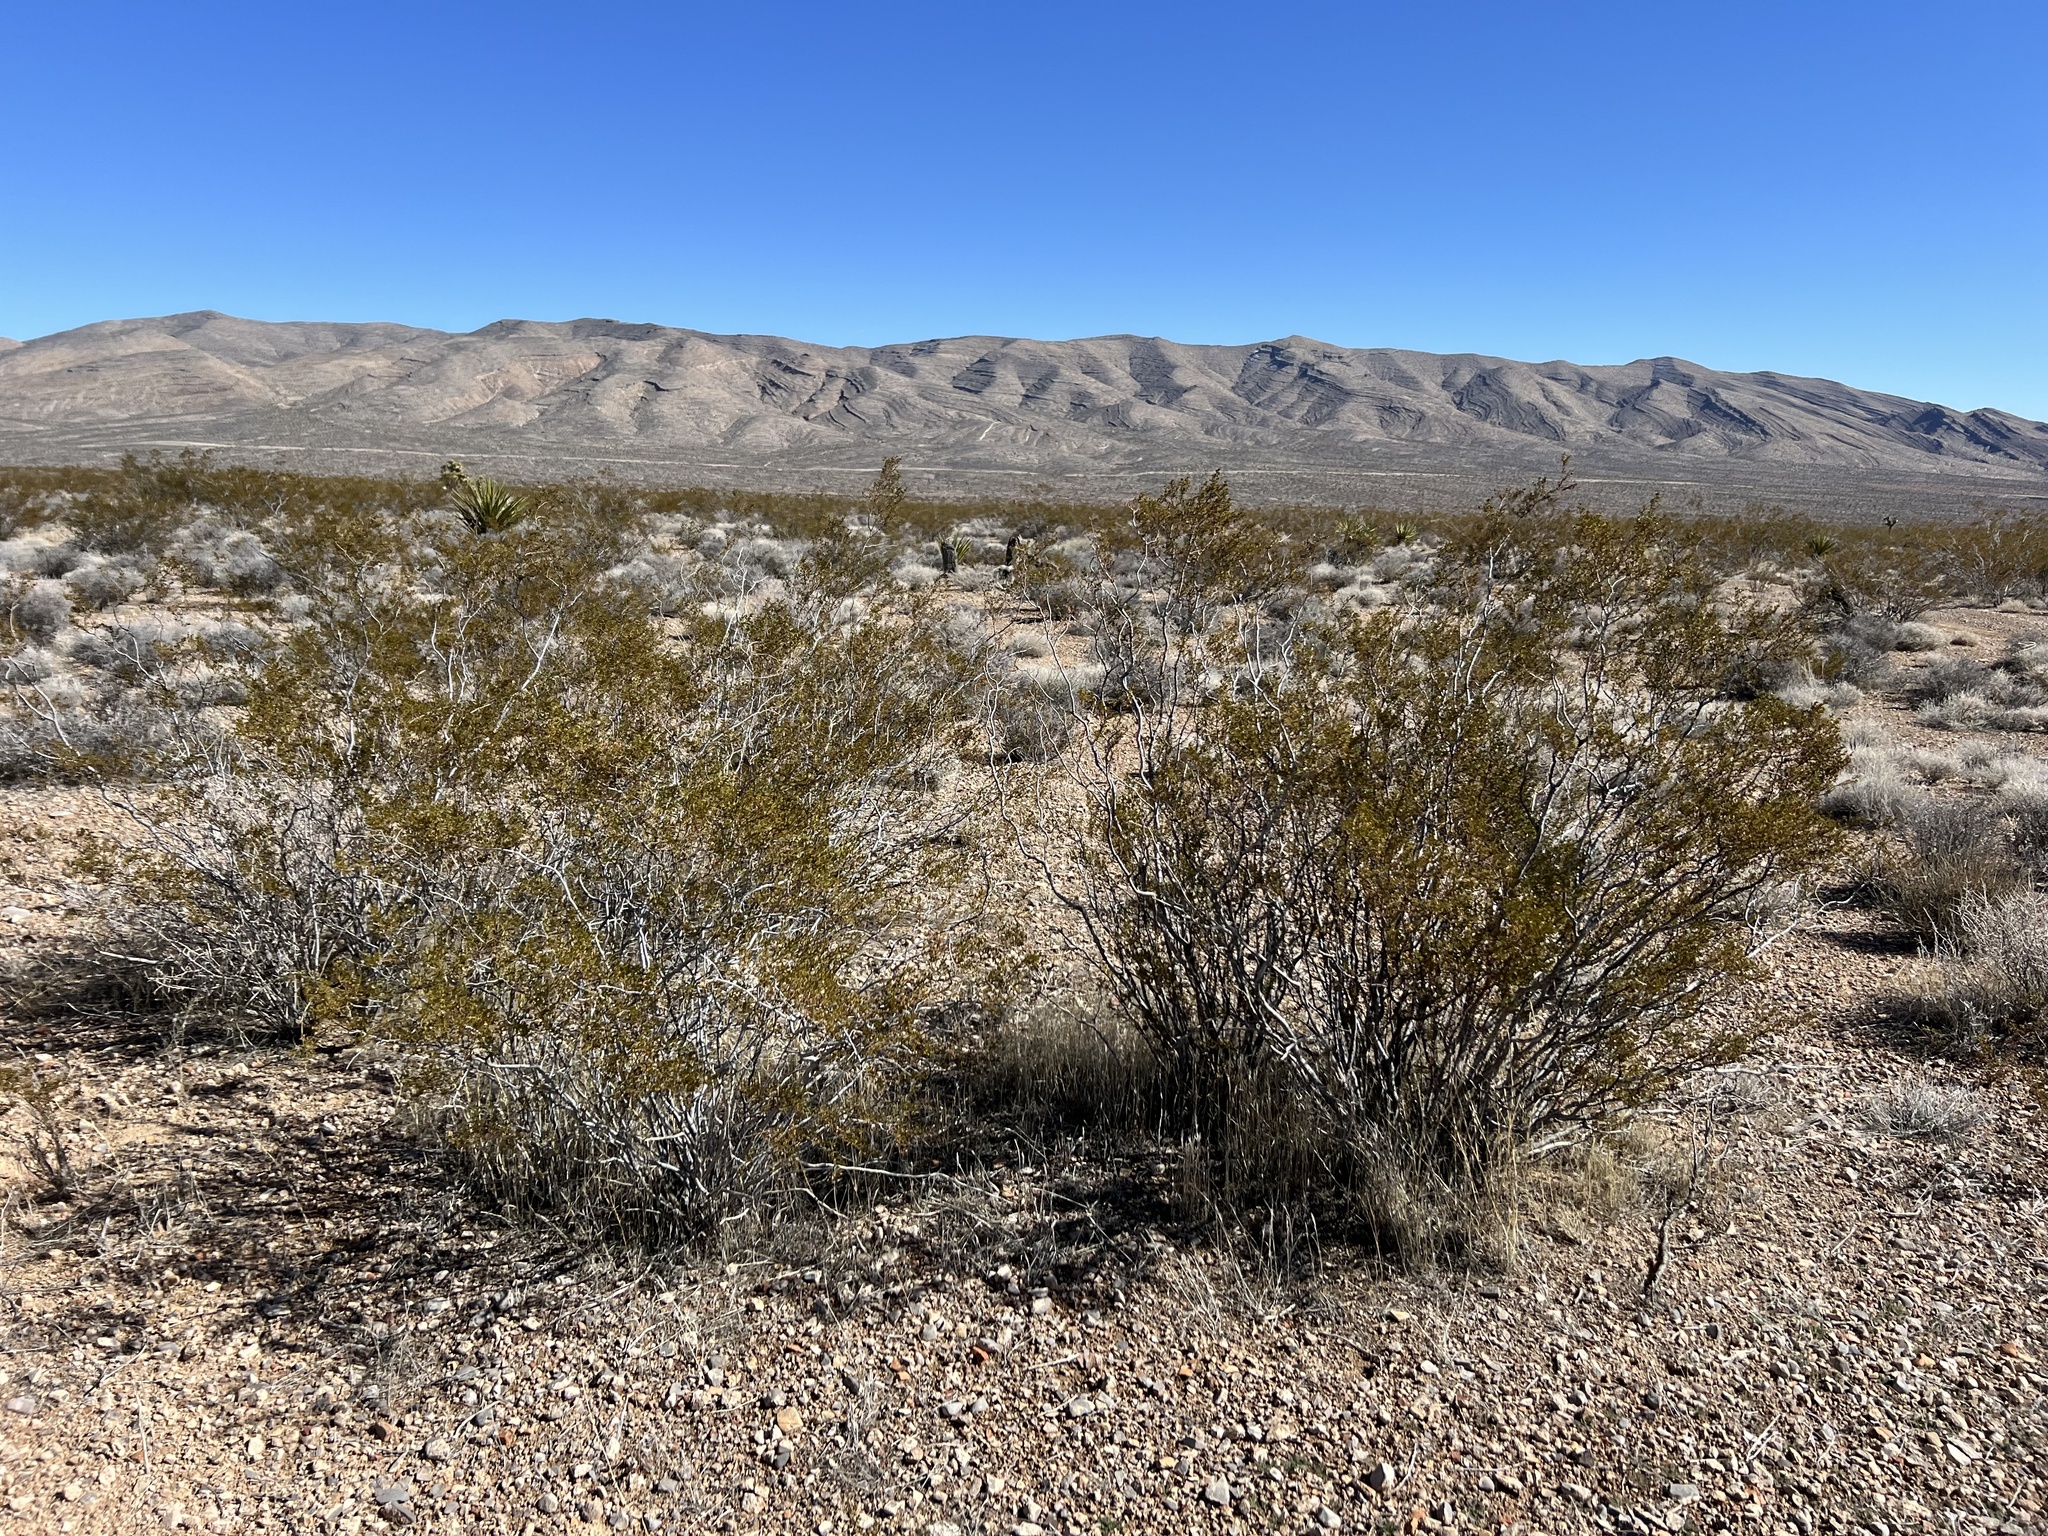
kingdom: Plantae
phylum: Tracheophyta
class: Magnoliopsida
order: Zygophyllales
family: Zygophyllaceae
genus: Larrea
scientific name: Larrea tridentata
